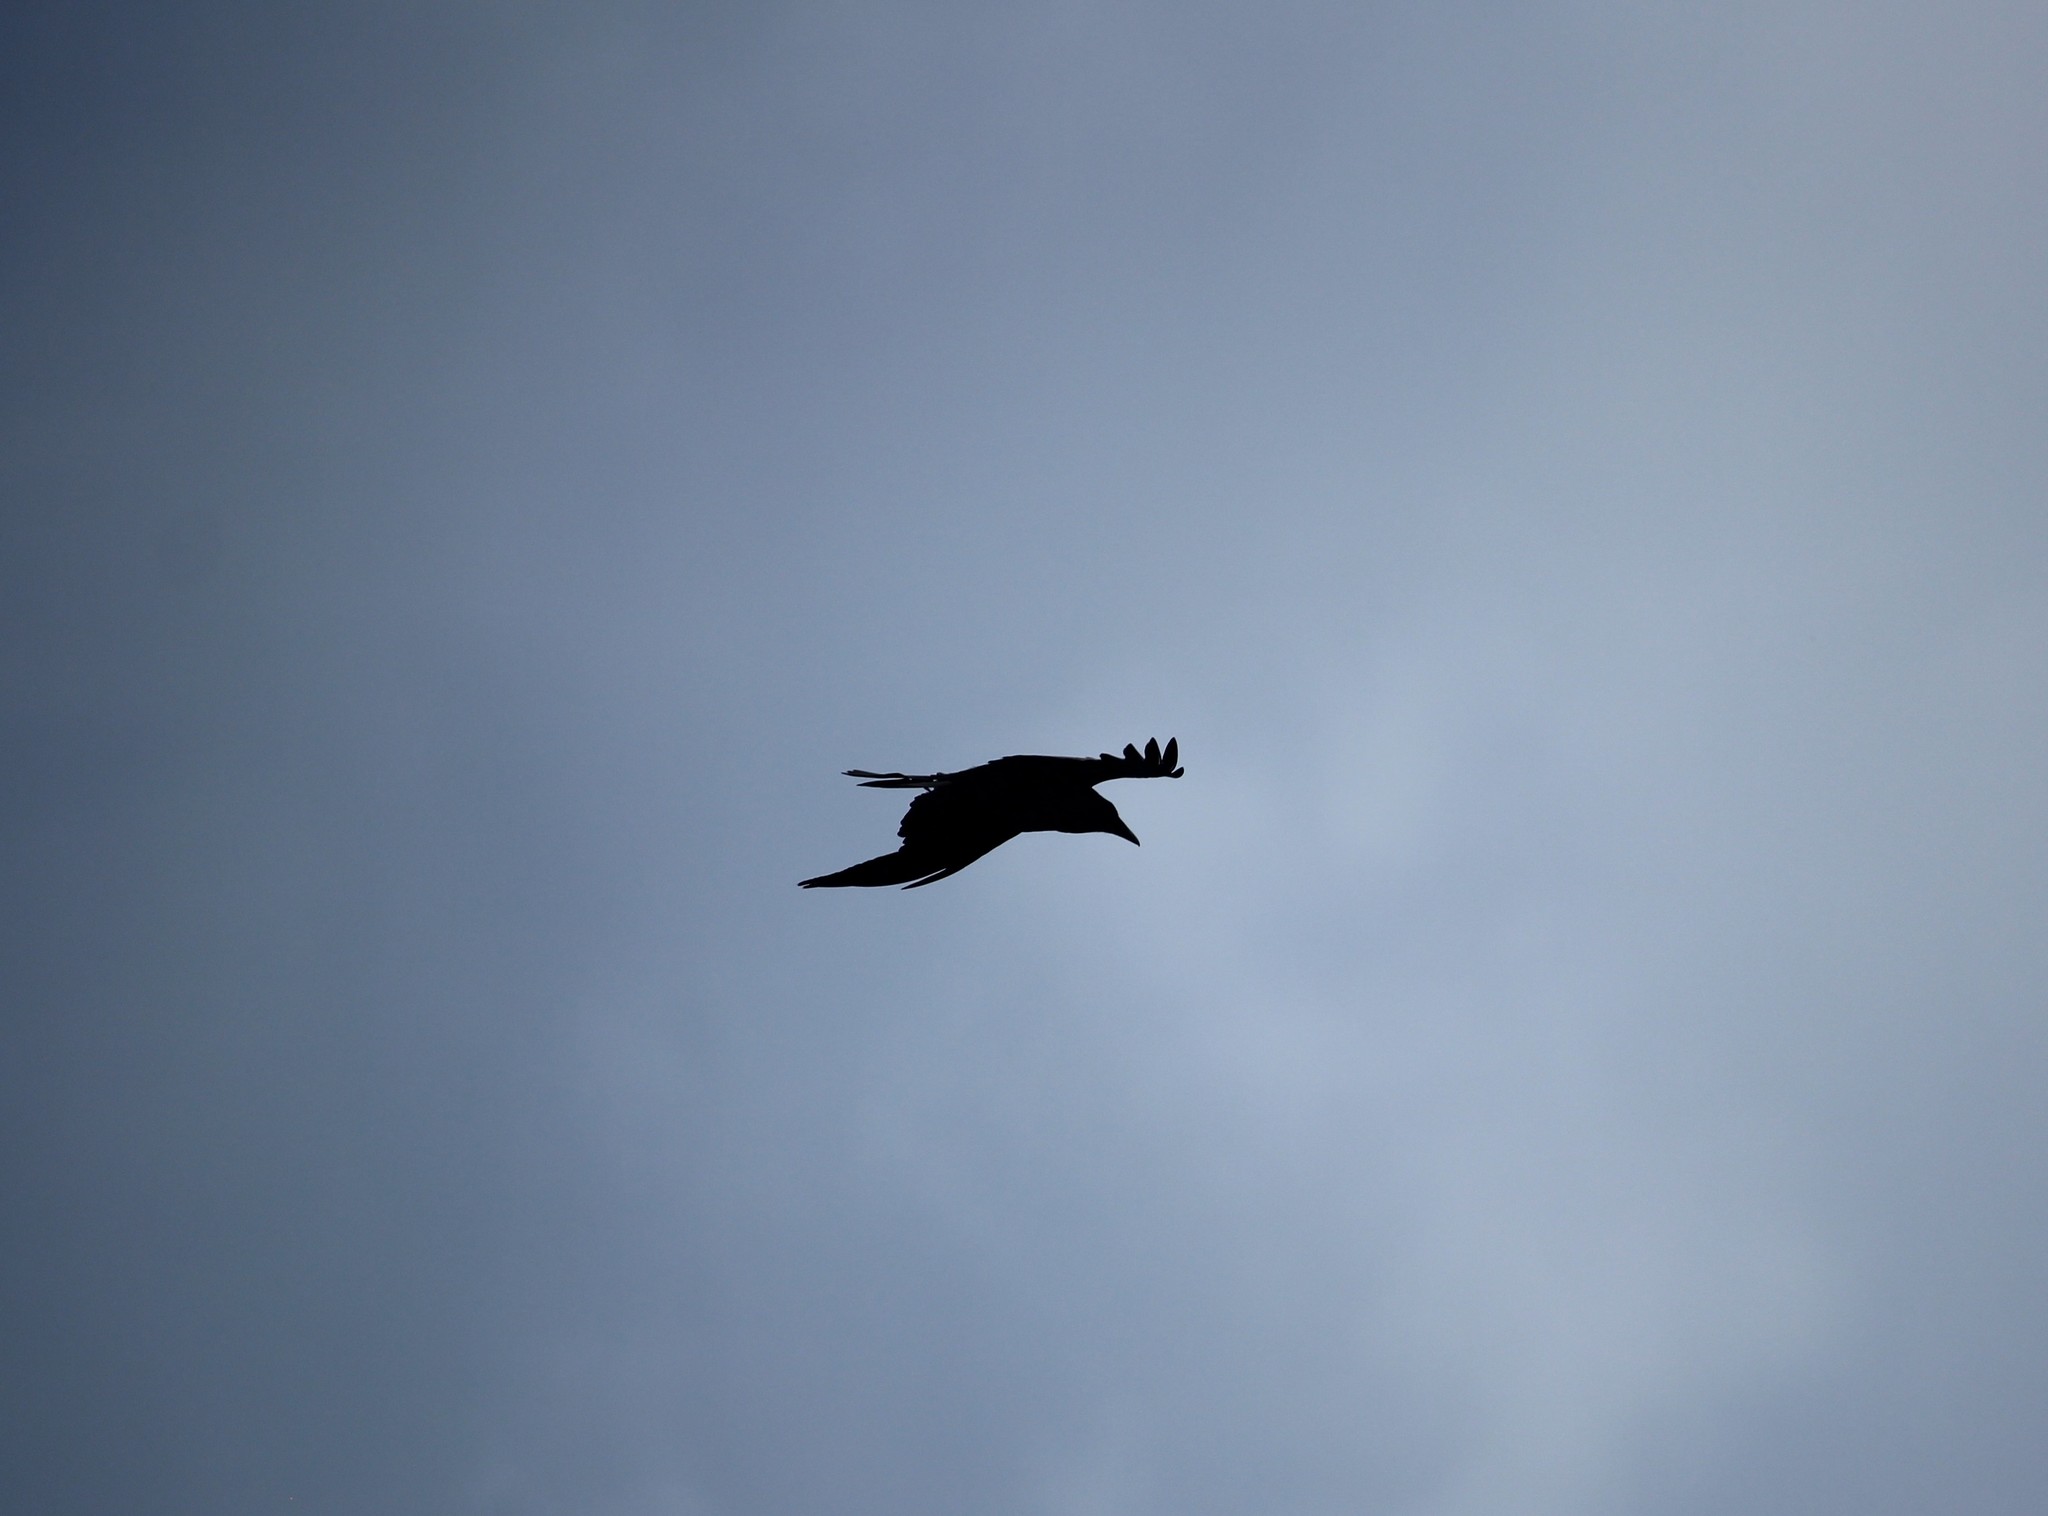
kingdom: Animalia
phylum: Chordata
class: Aves
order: Passeriformes
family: Corvidae
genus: Corvus
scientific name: Corvus corax
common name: Common raven
